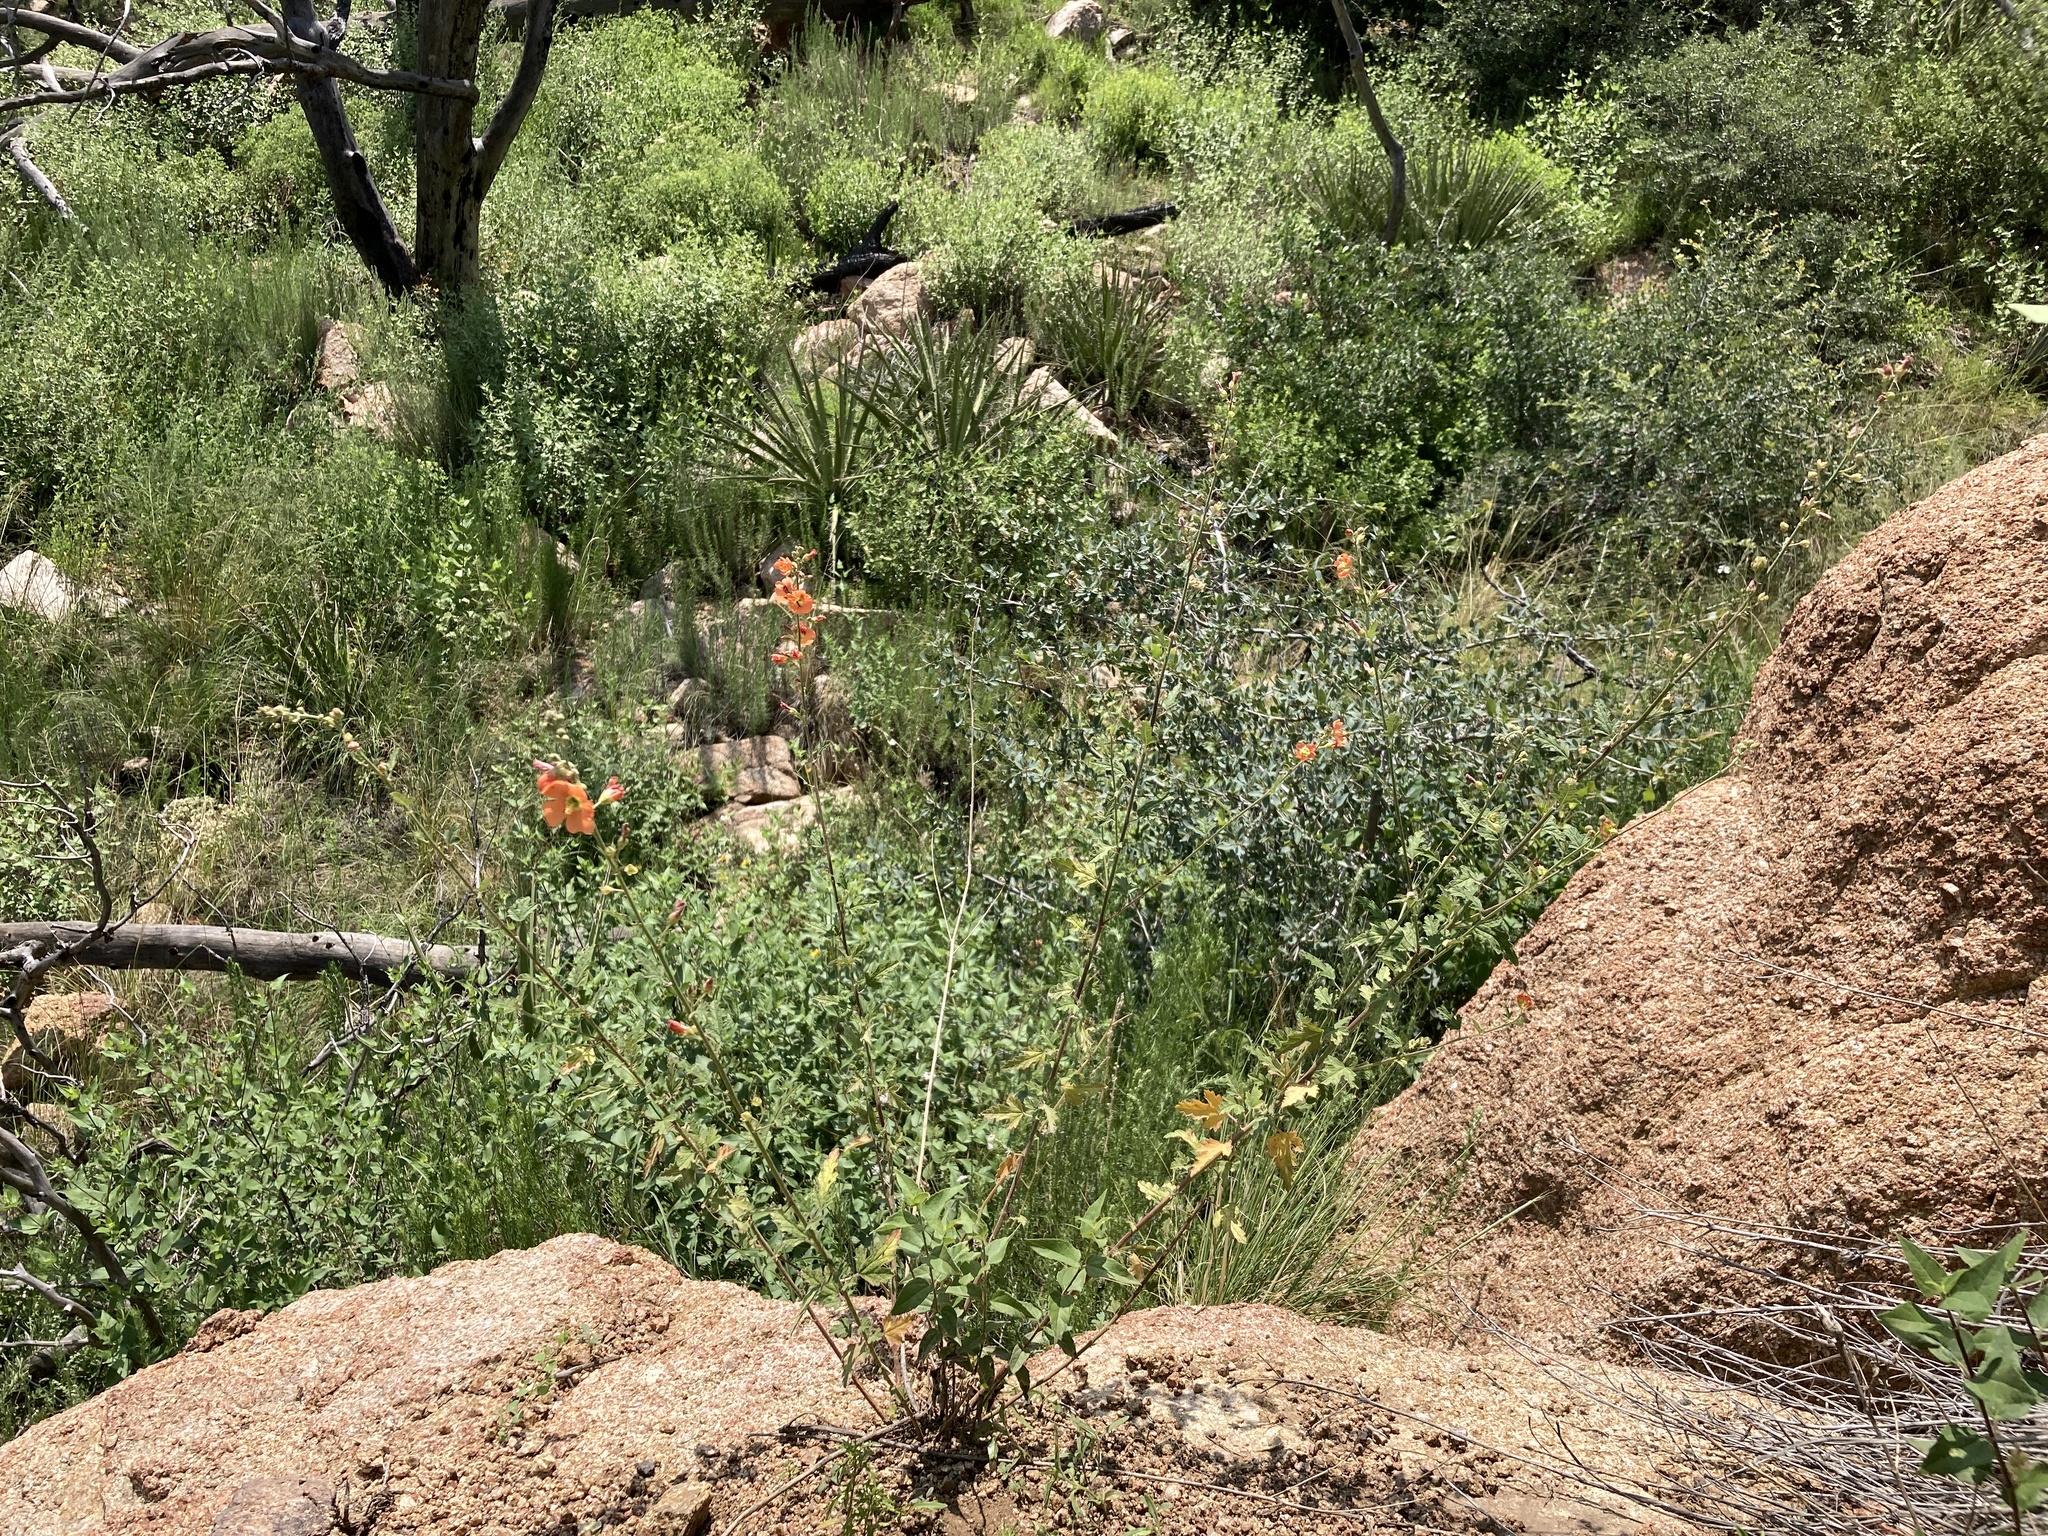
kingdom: Plantae
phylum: Tracheophyta
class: Magnoliopsida
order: Malvales
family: Malvaceae
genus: Sphaeralcea
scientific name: Sphaeralcea fendleri
